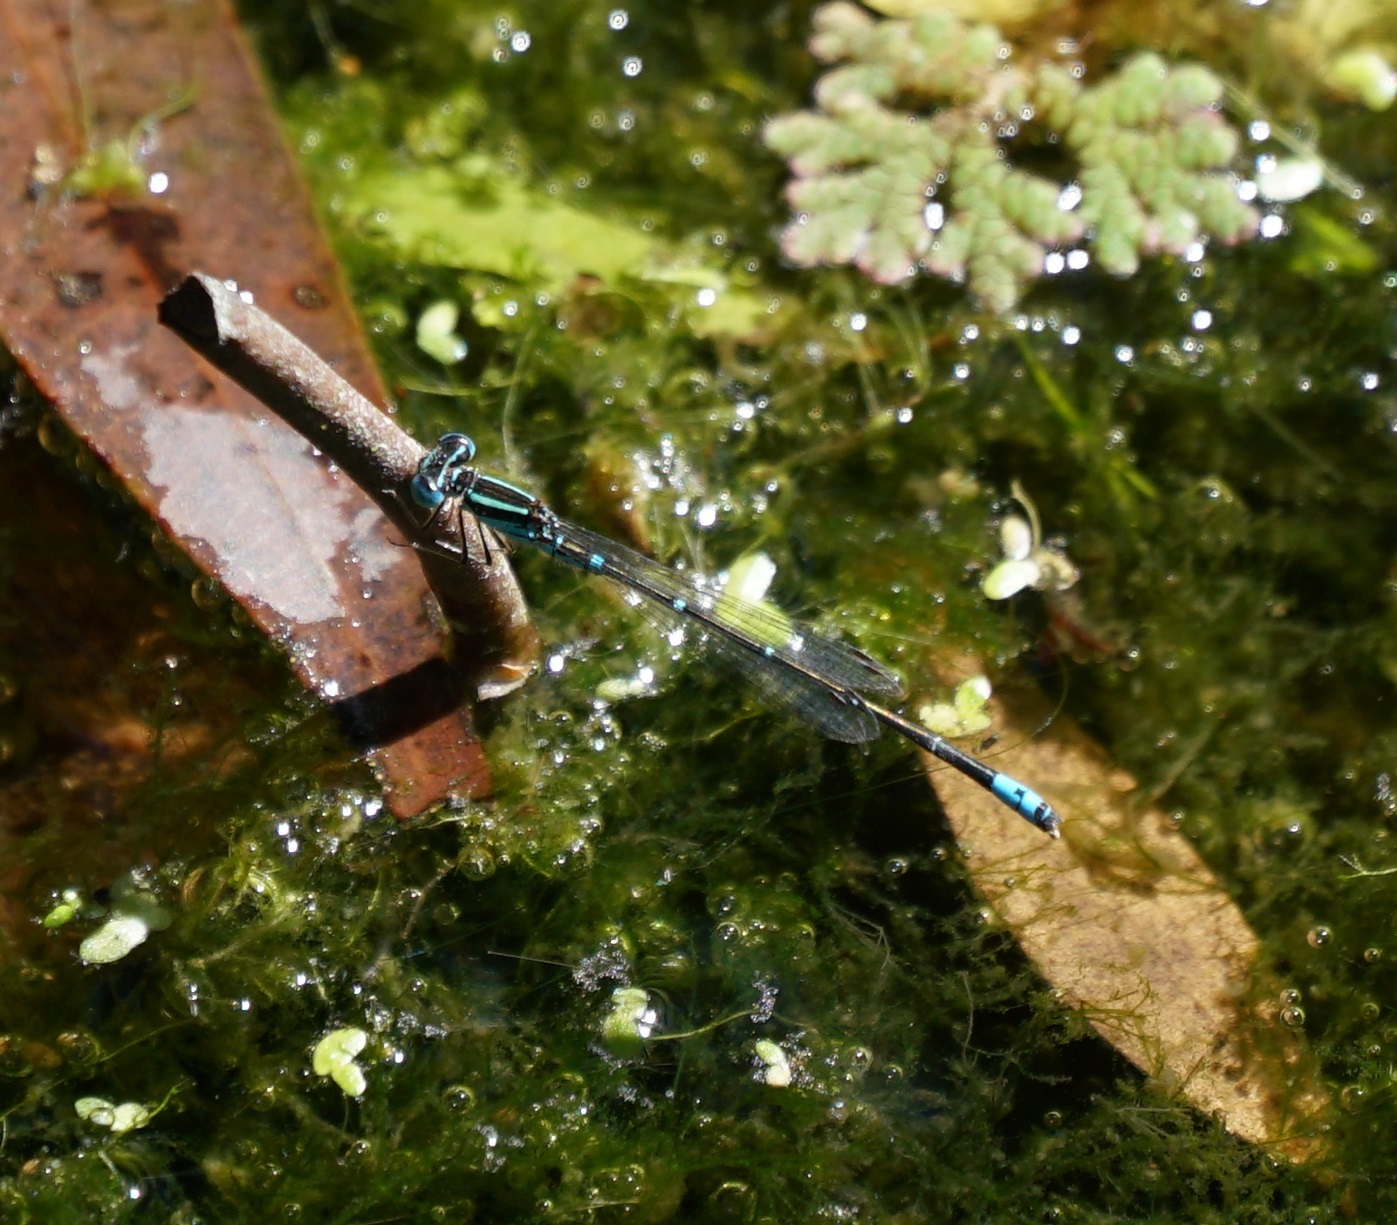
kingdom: Animalia
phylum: Arthropoda
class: Insecta
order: Odonata
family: Coenagrionidae
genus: Austroagrion
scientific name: Austroagrion watsoni
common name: Eastern billabongfly
